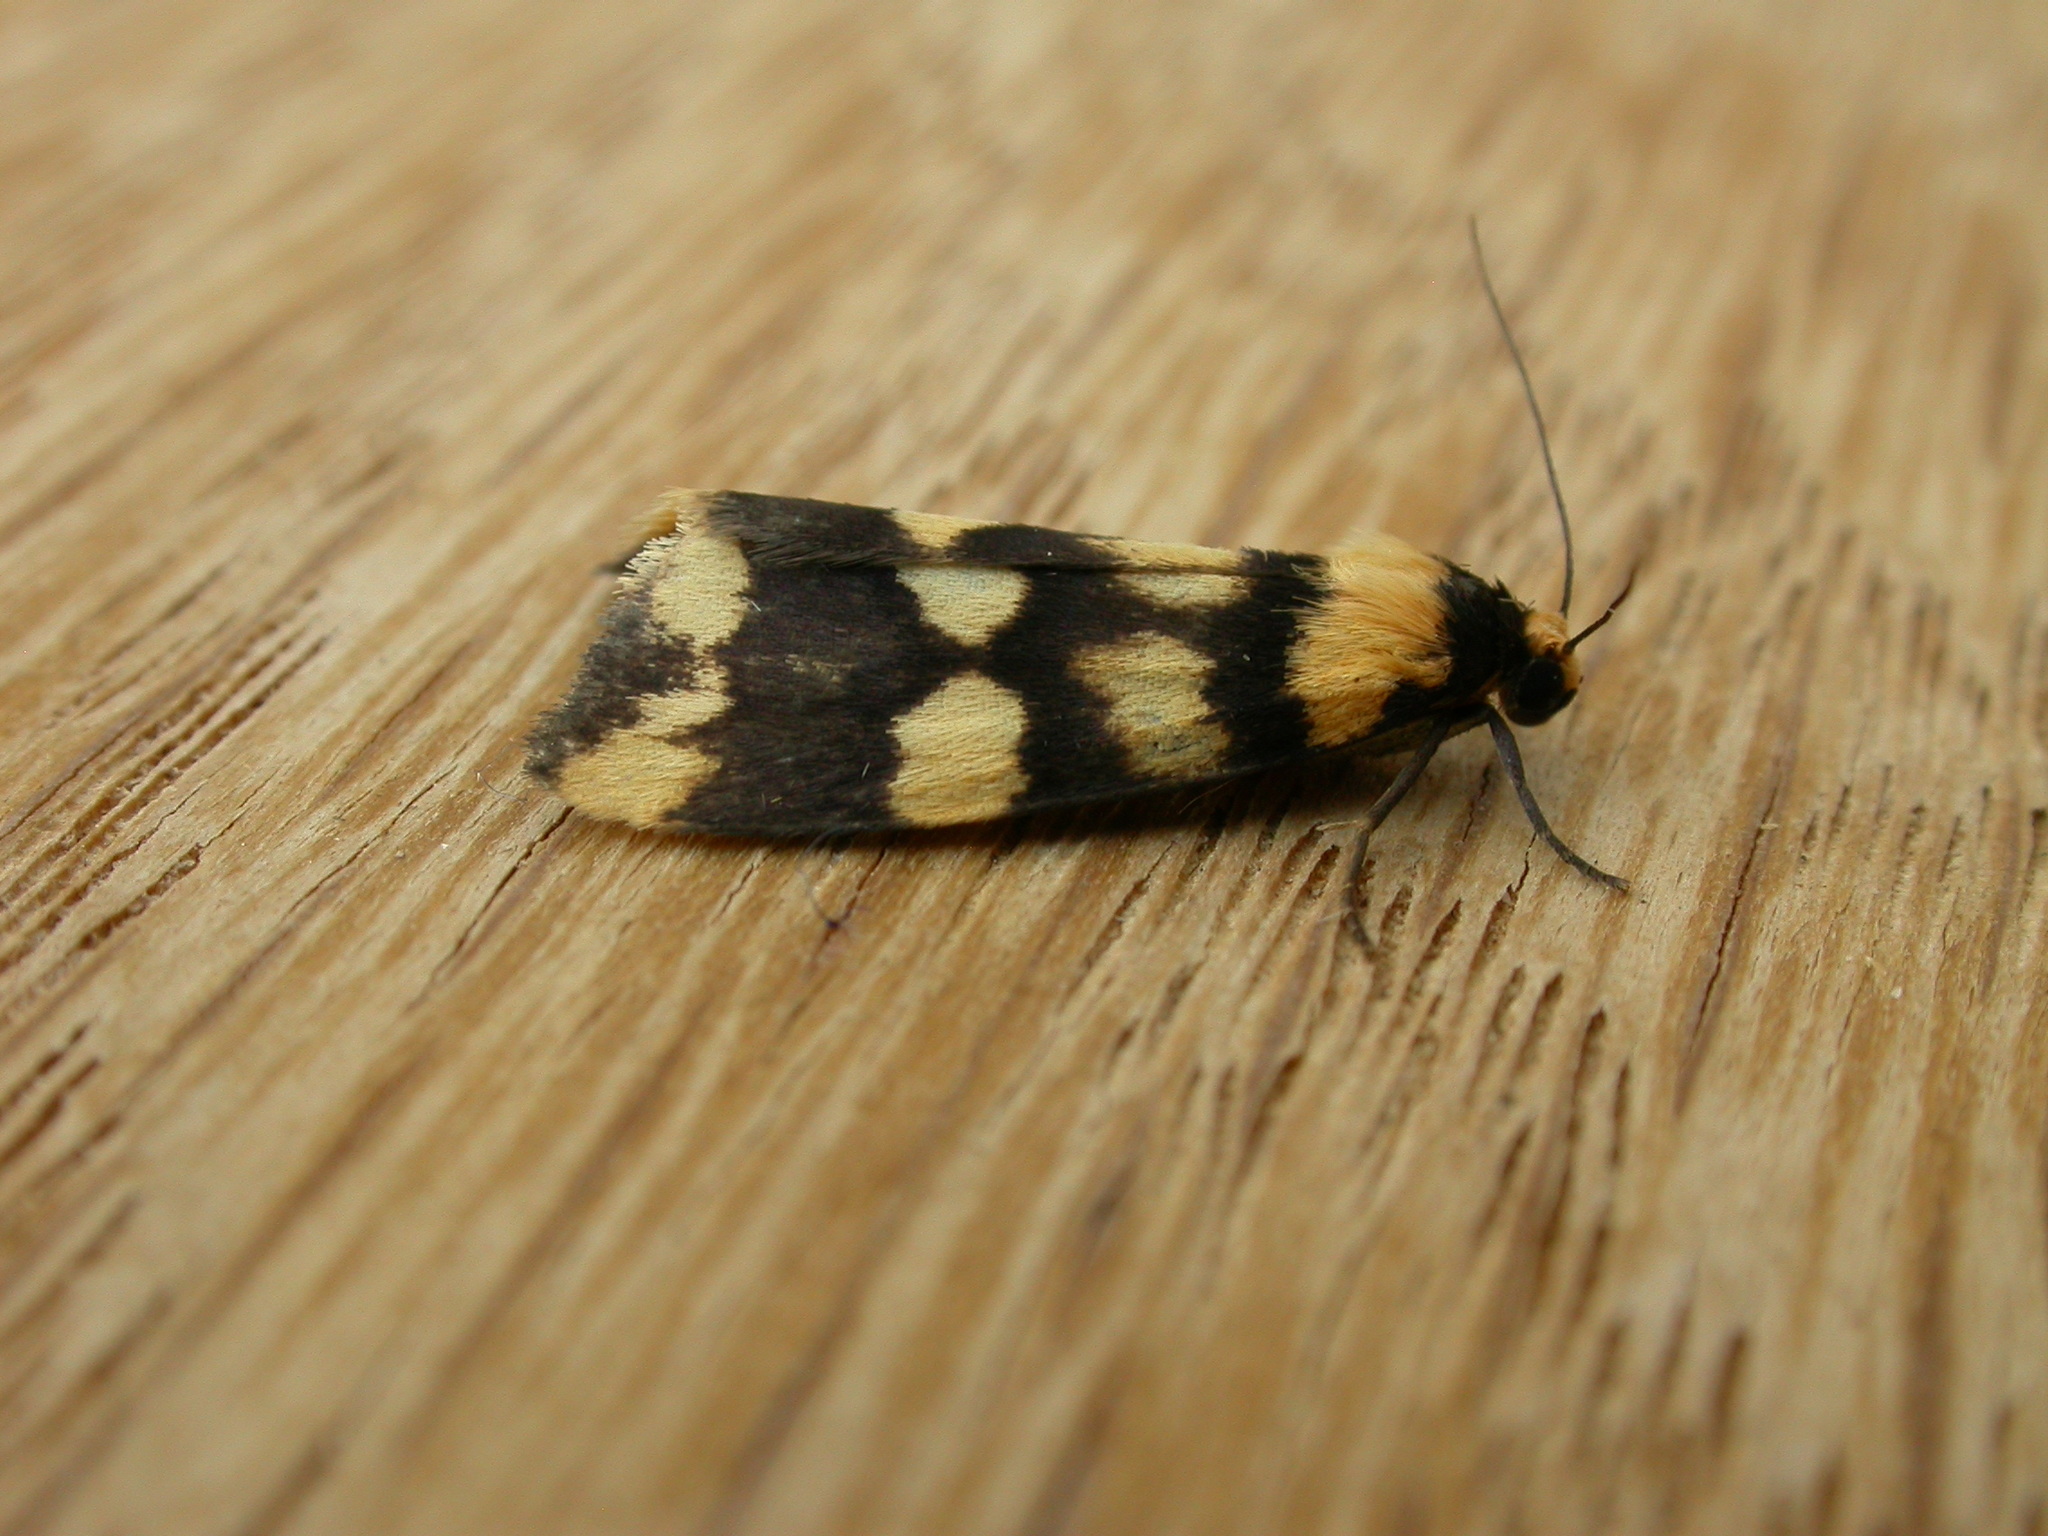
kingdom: Animalia
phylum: Arthropoda
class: Insecta
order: Lepidoptera
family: Erebidae
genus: Termessa
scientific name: Termessa zonophanes
